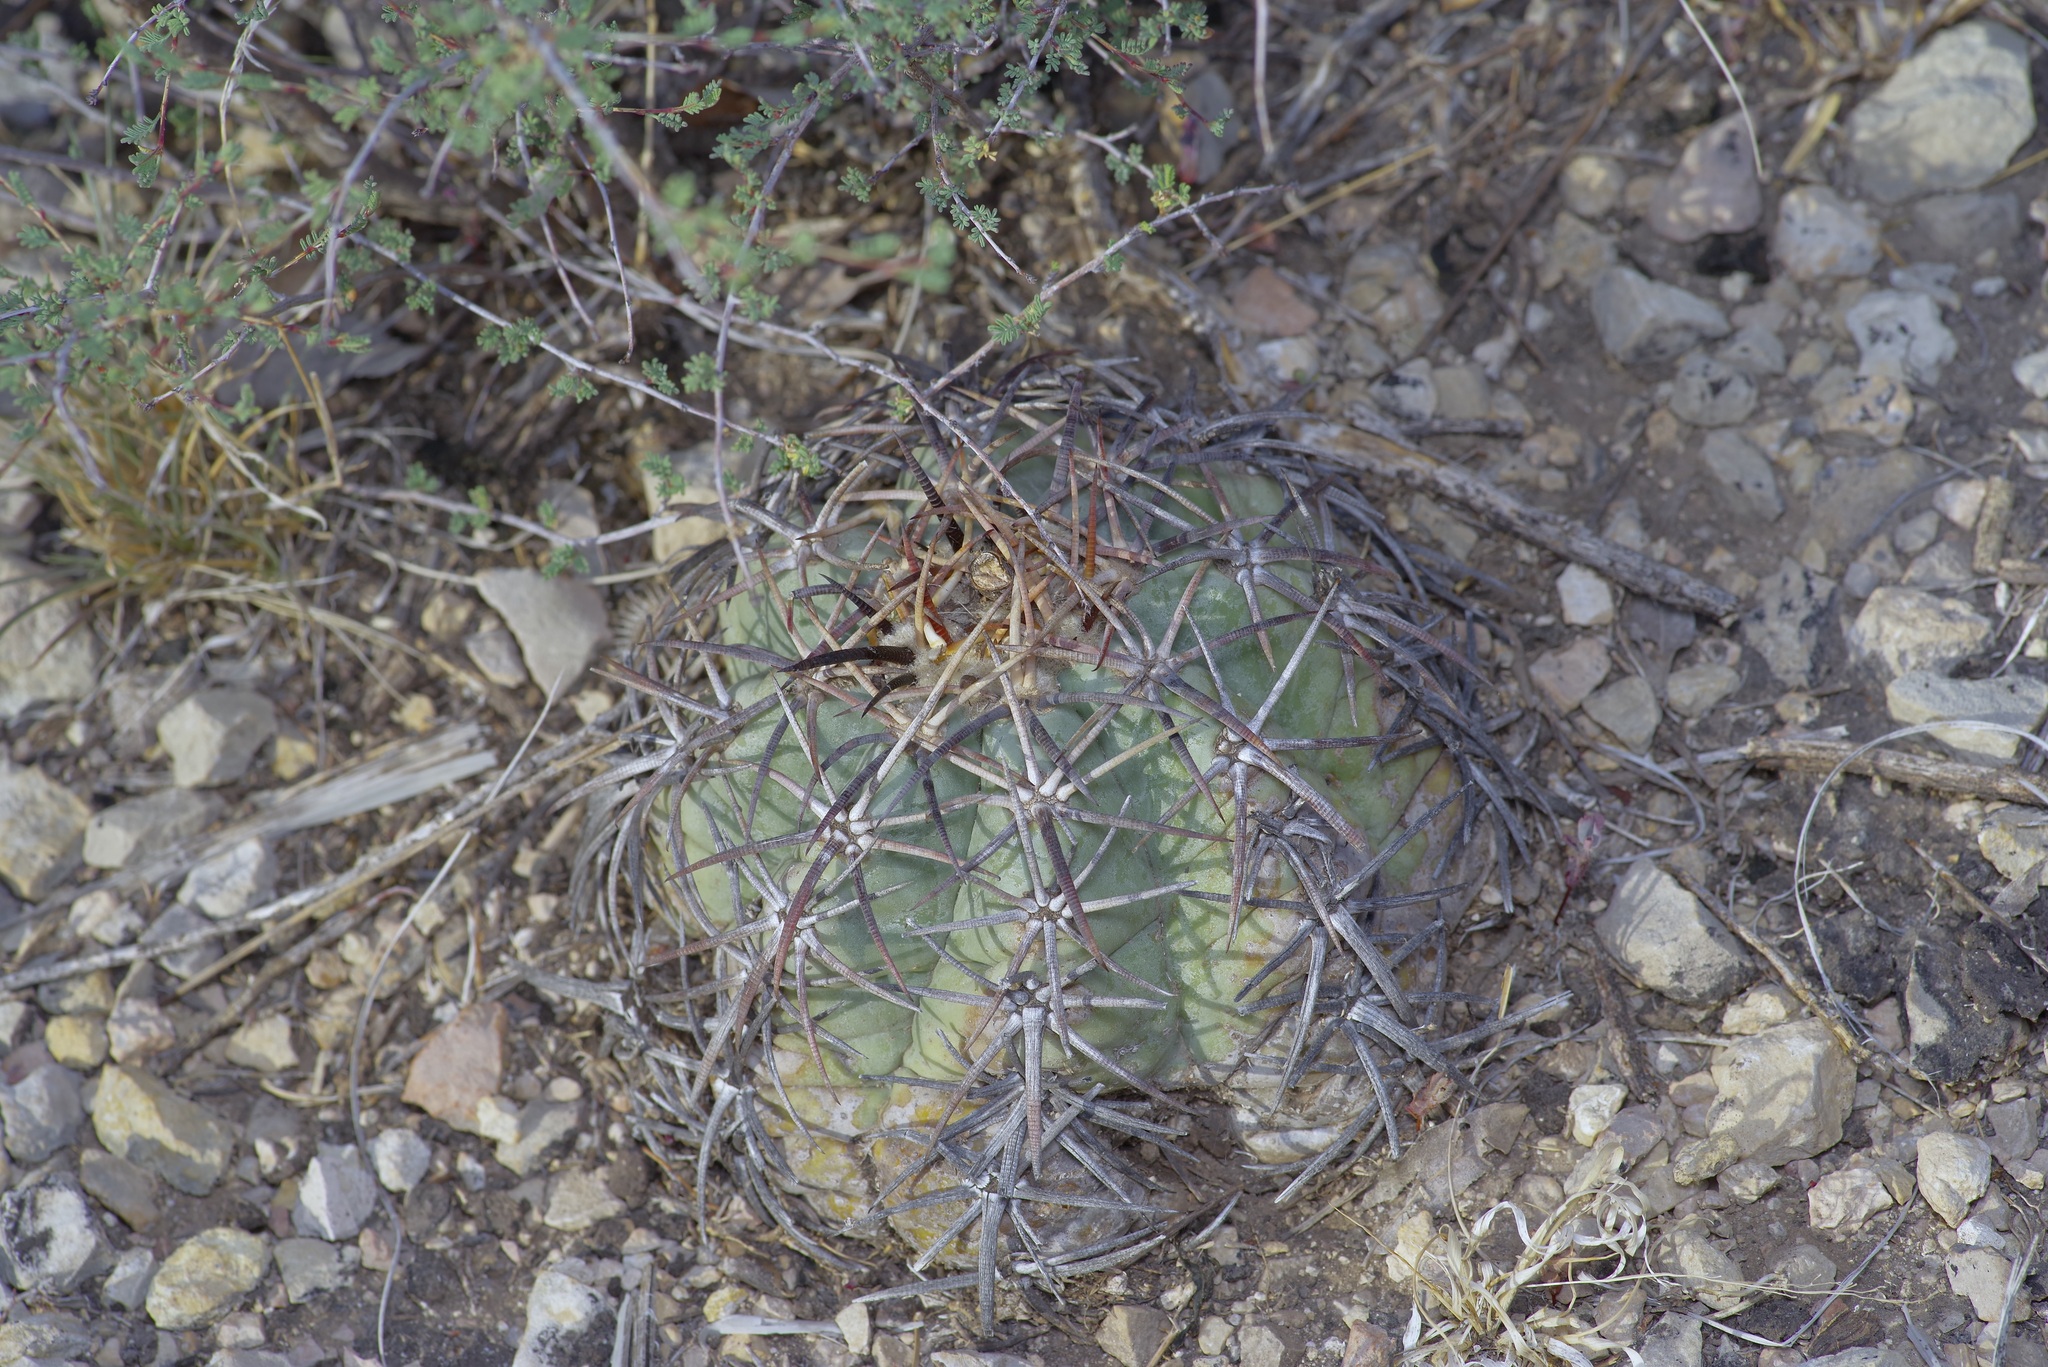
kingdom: Plantae
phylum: Tracheophyta
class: Magnoliopsida
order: Caryophyllales
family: Cactaceae
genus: Echinocactus
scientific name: Echinocactus horizonthalonius
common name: Devilshead
